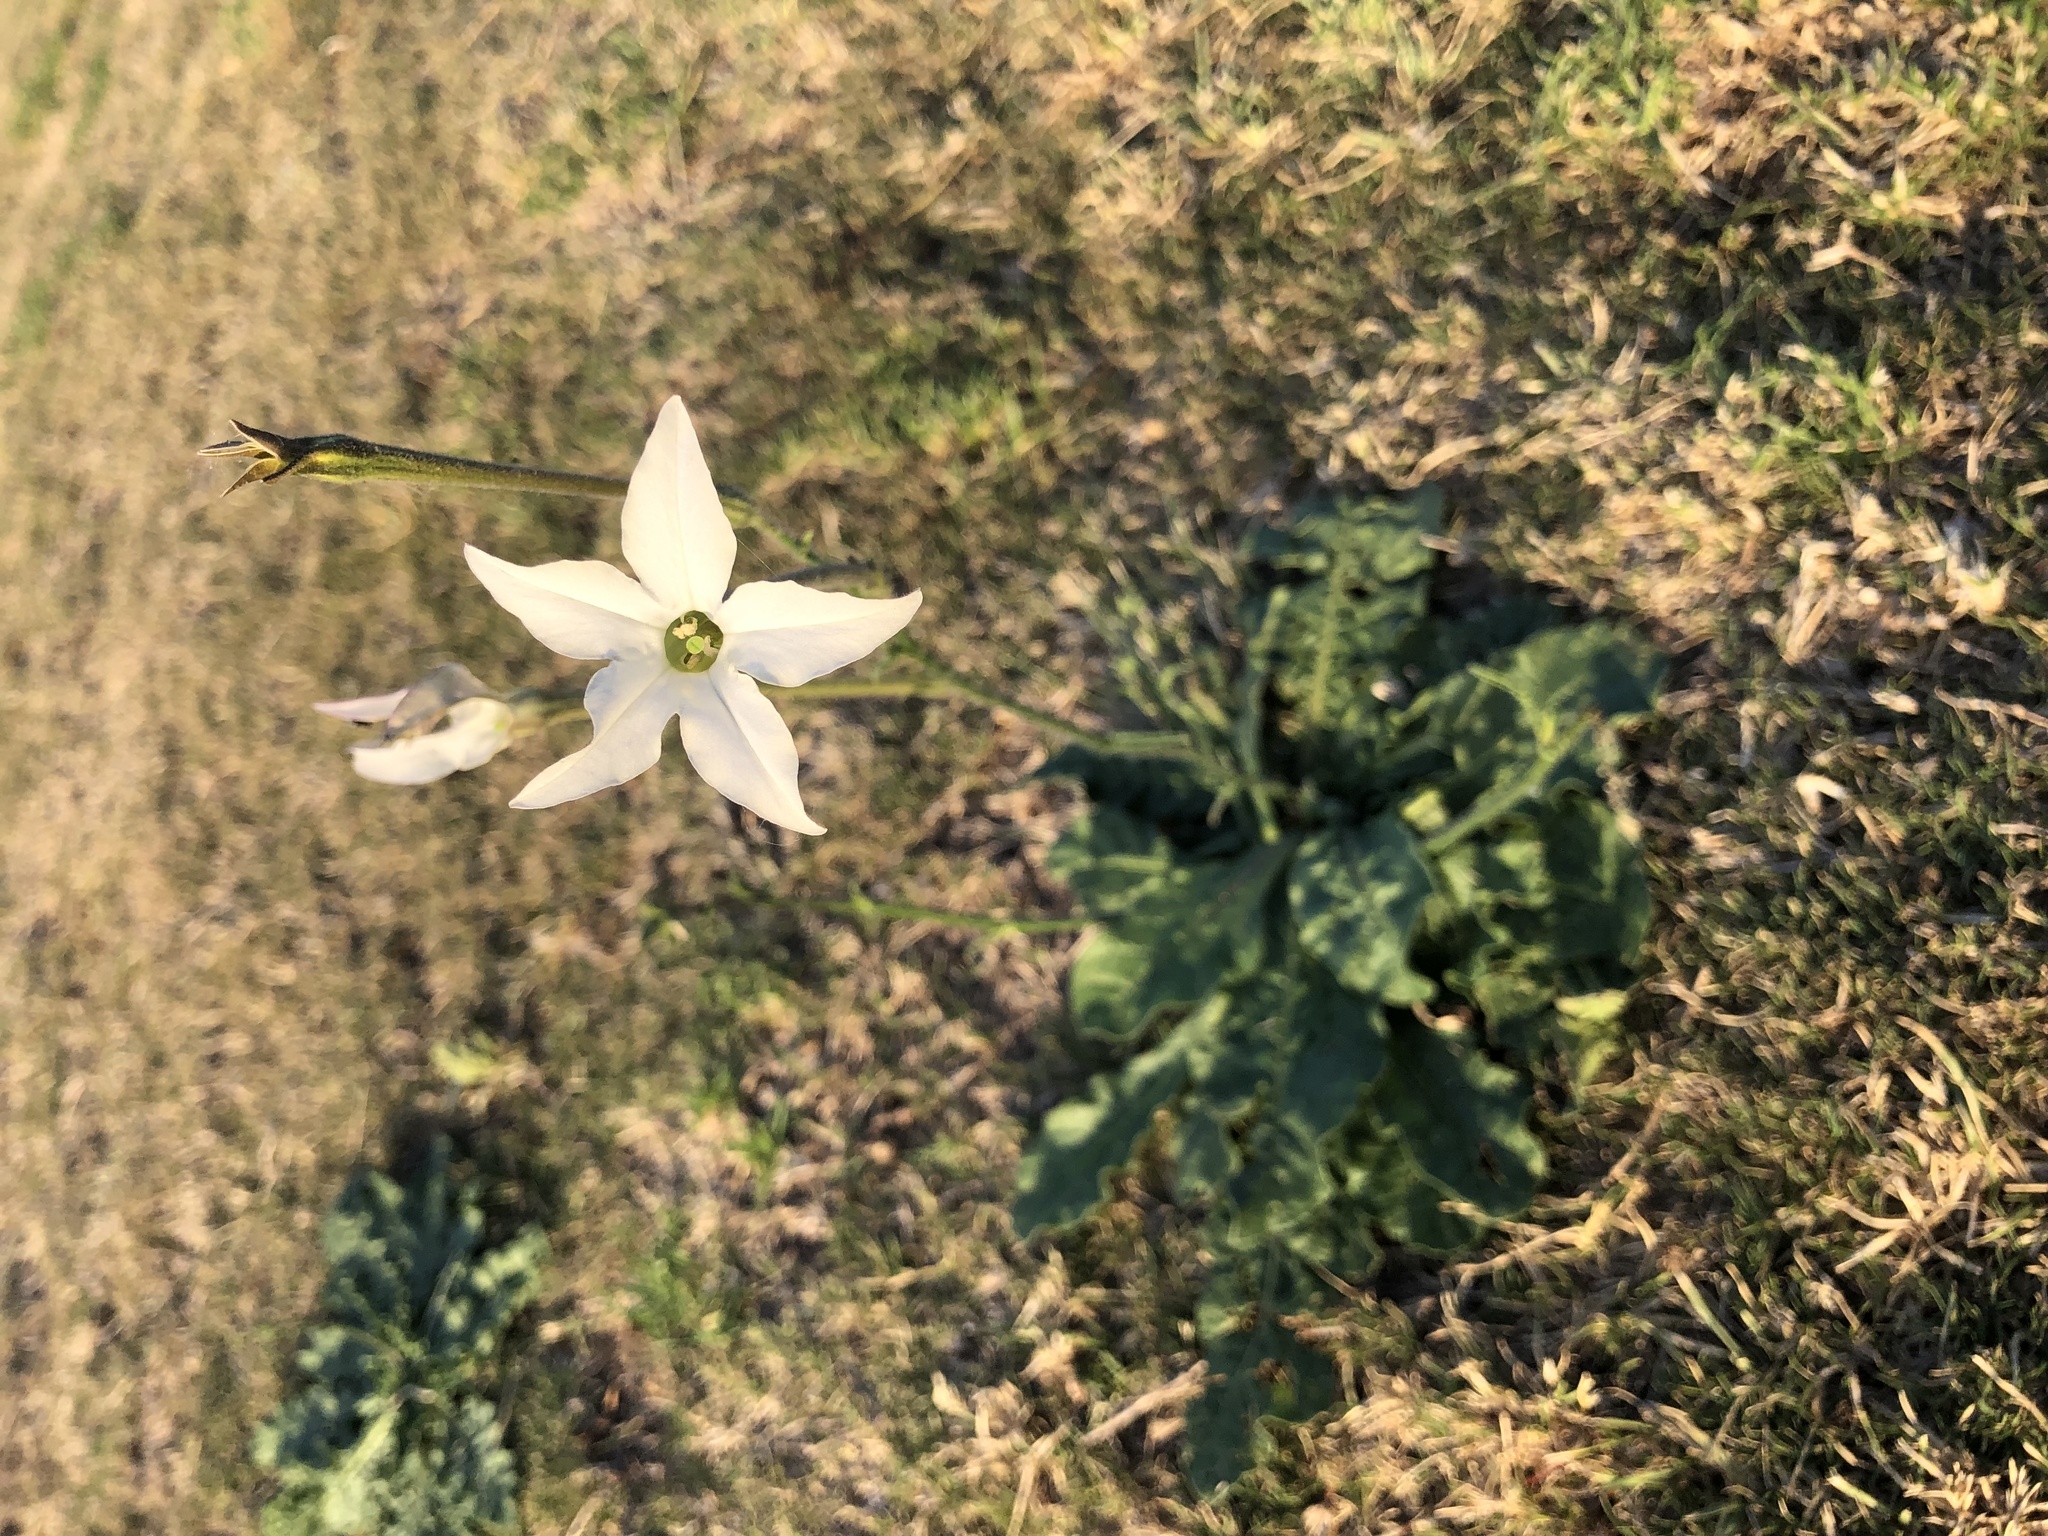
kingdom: Plantae
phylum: Tracheophyta
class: Magnoliopsida
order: Solanales
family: Solanaceae
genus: Nicotiana
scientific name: Nicotiana longiflora
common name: Long-flowered tobacco
